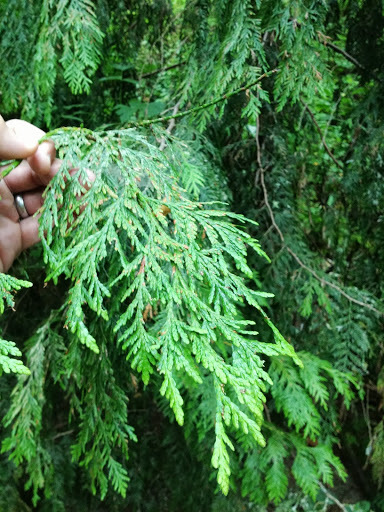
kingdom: Plantae
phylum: Tracheophyta
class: Pinopsida
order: Pinales
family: Cupressaceae
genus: Thuja
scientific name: Thuja plicata
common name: Western red-cedar
